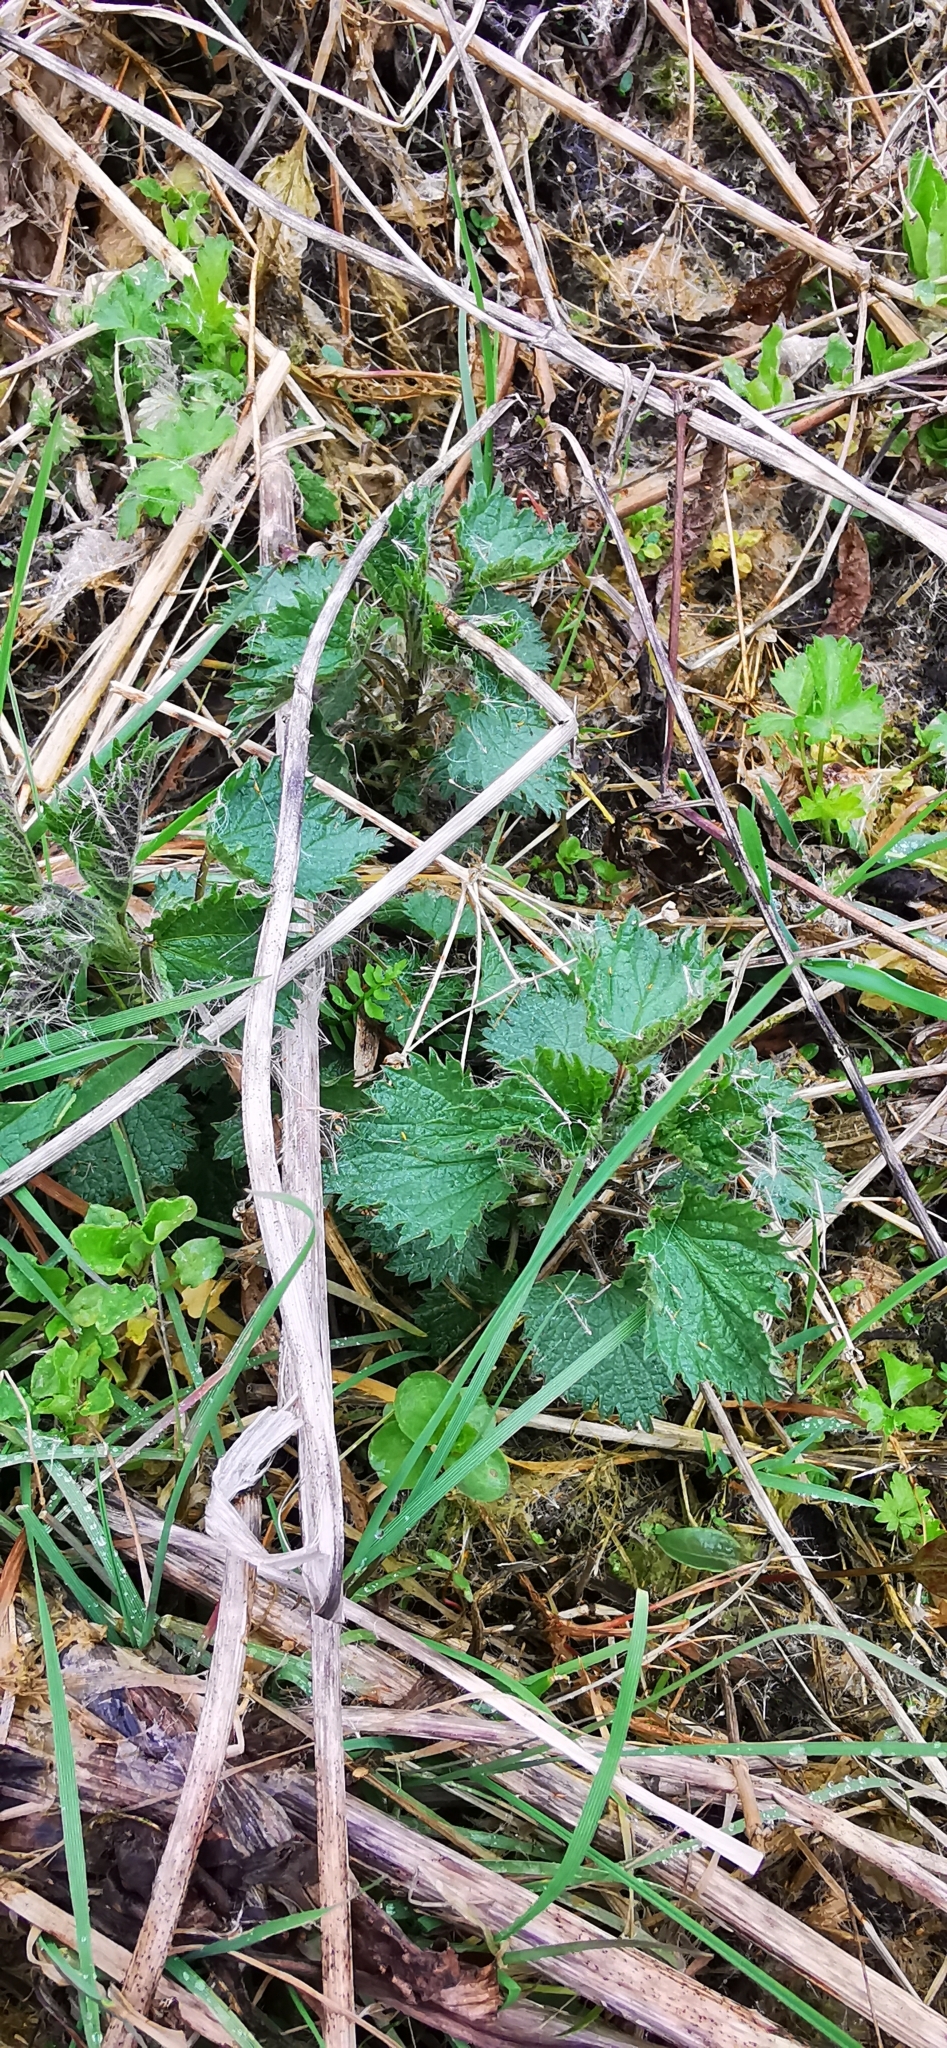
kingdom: Plantae
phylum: Tracheophyta
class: Magnoliopsida
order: Rosales
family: Urticaceae
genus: Urtica
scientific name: Urtica dioica
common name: Common nettle
